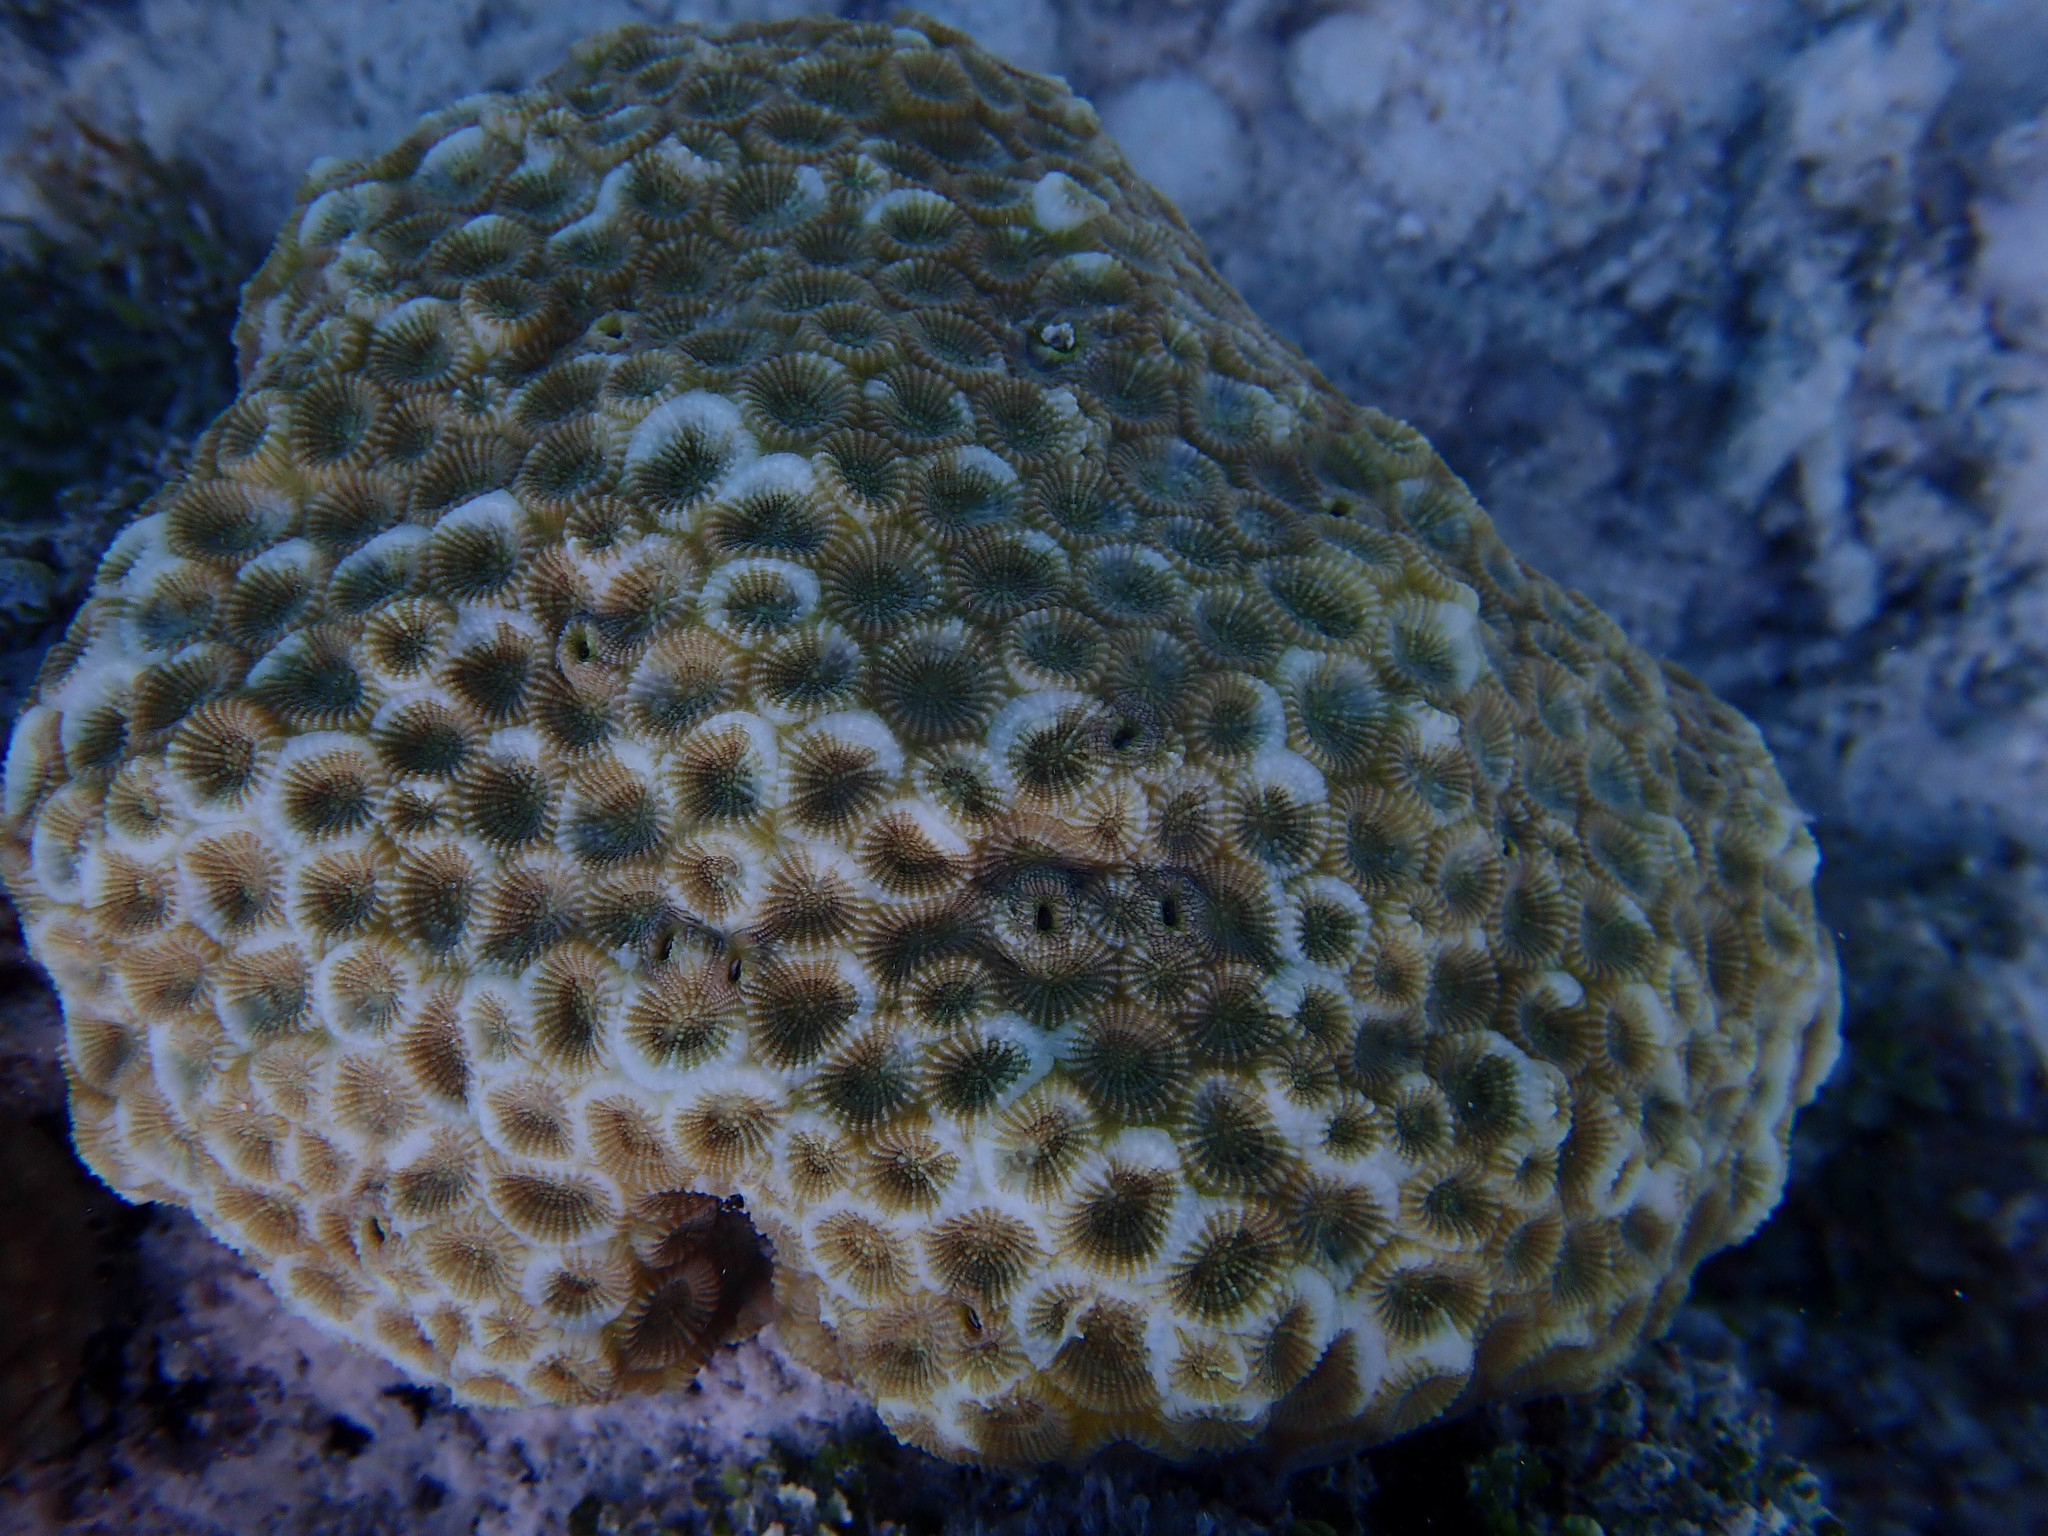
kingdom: Animalia
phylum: Cnidaria
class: Anthozoa
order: Scleractinia
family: Merulinidae
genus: Favites
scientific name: Favites magnistellata
